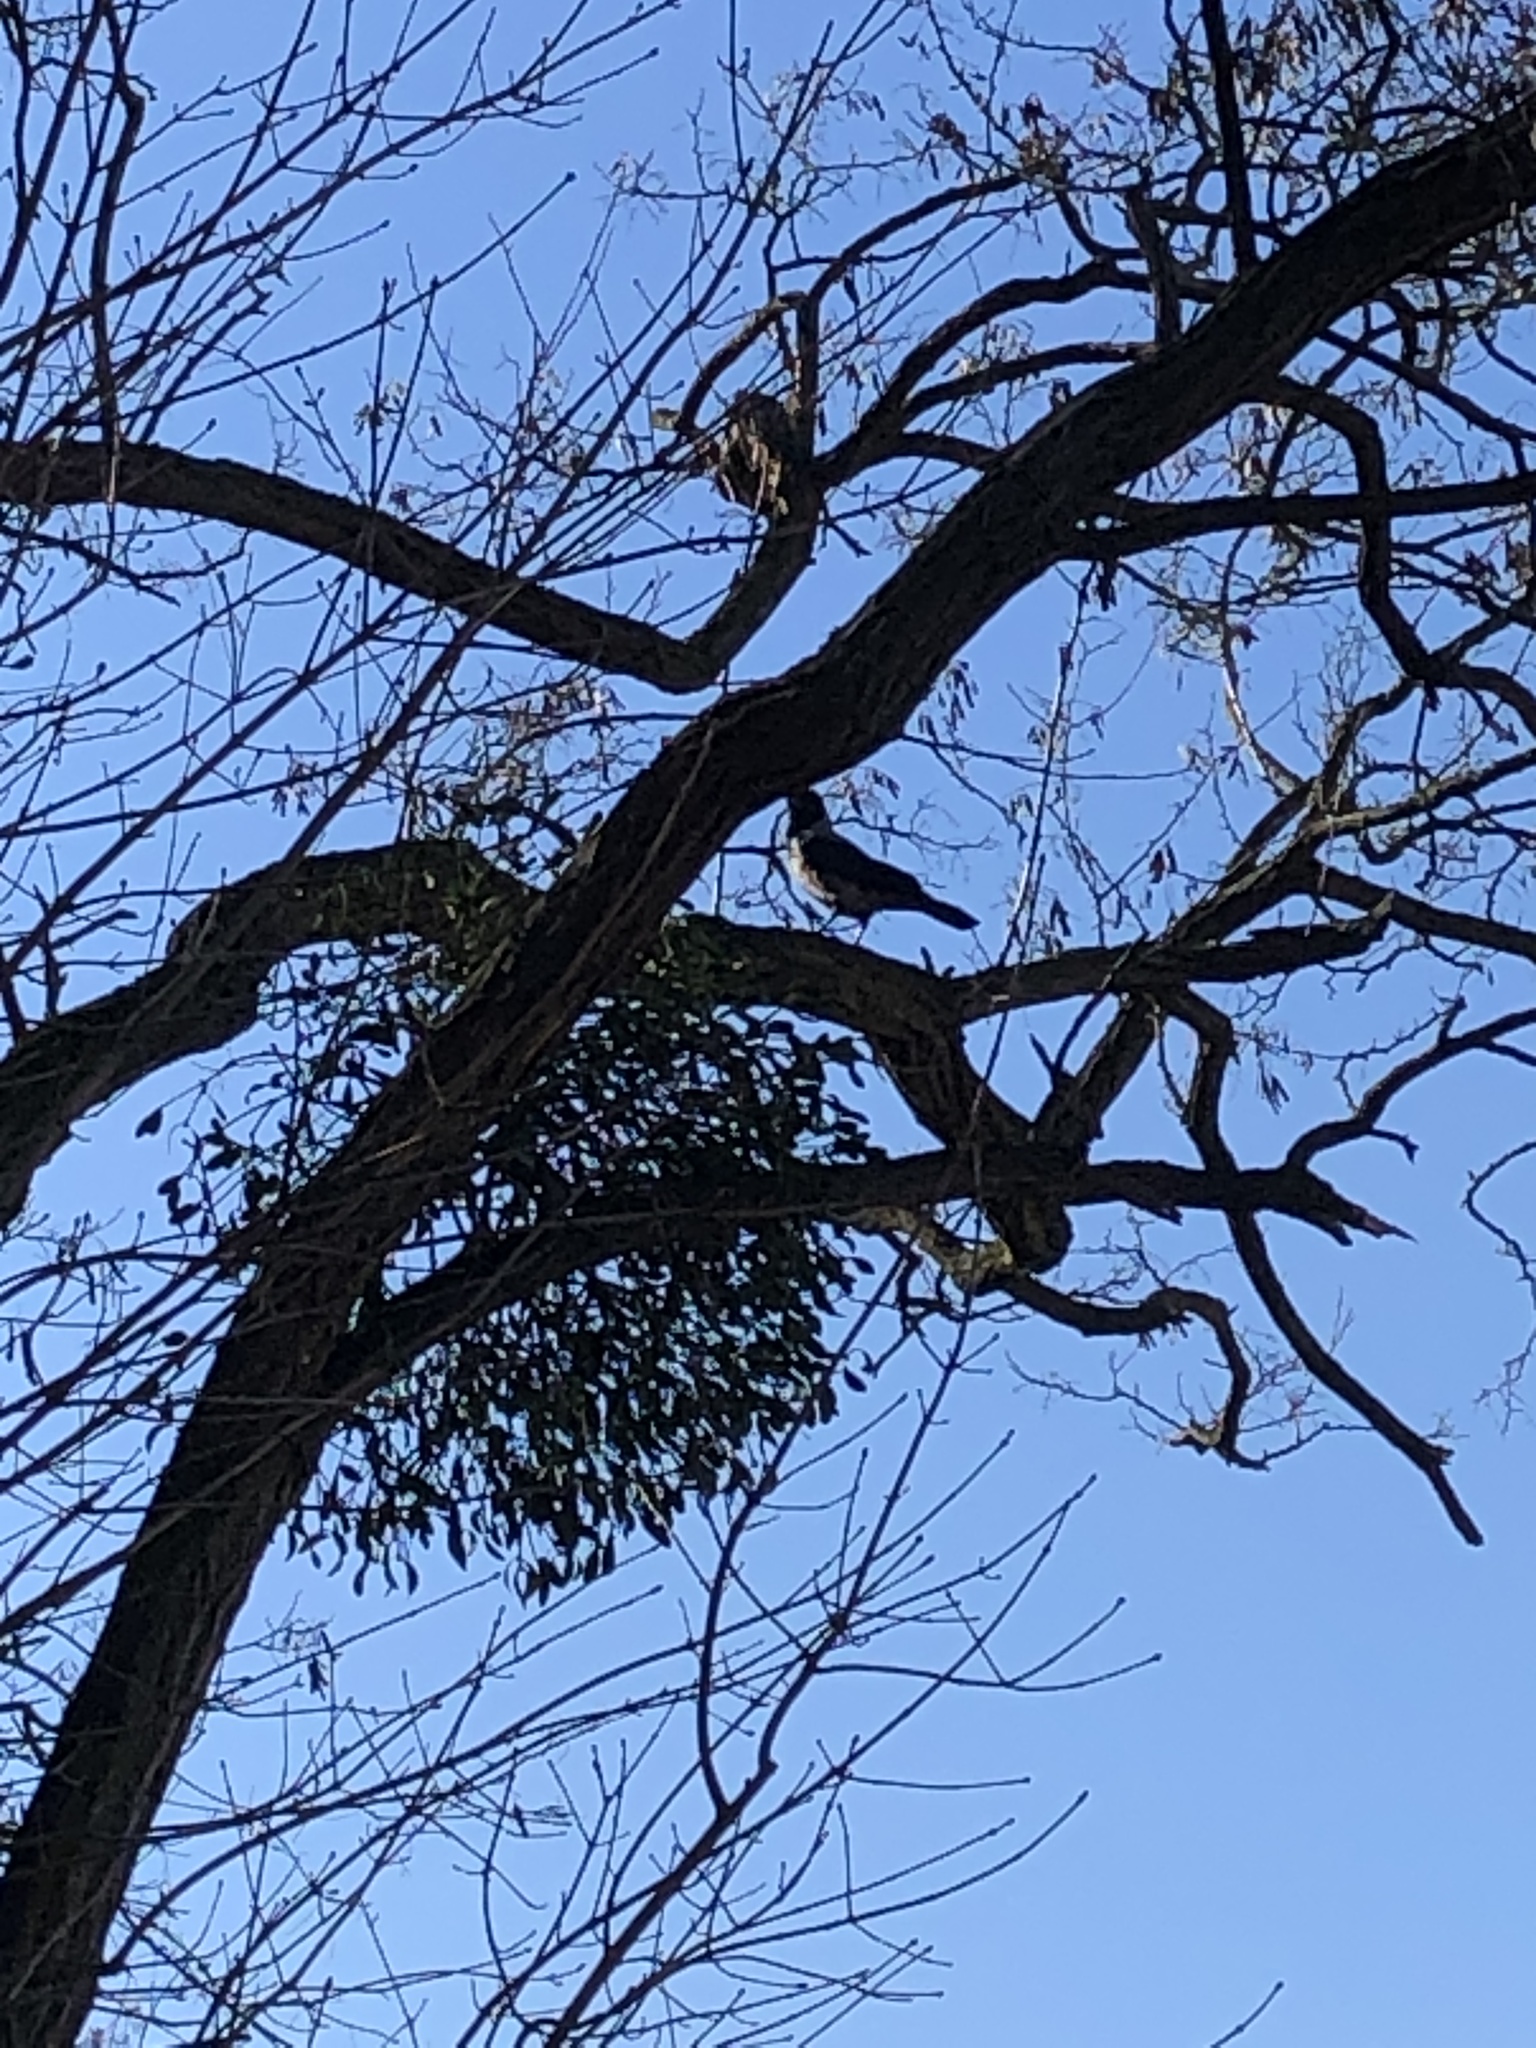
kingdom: Animalia
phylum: Chordata
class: Aves
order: Passeriformes
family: Corvidae
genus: Corvus
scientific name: Corvus cornix
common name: Hooded crow
